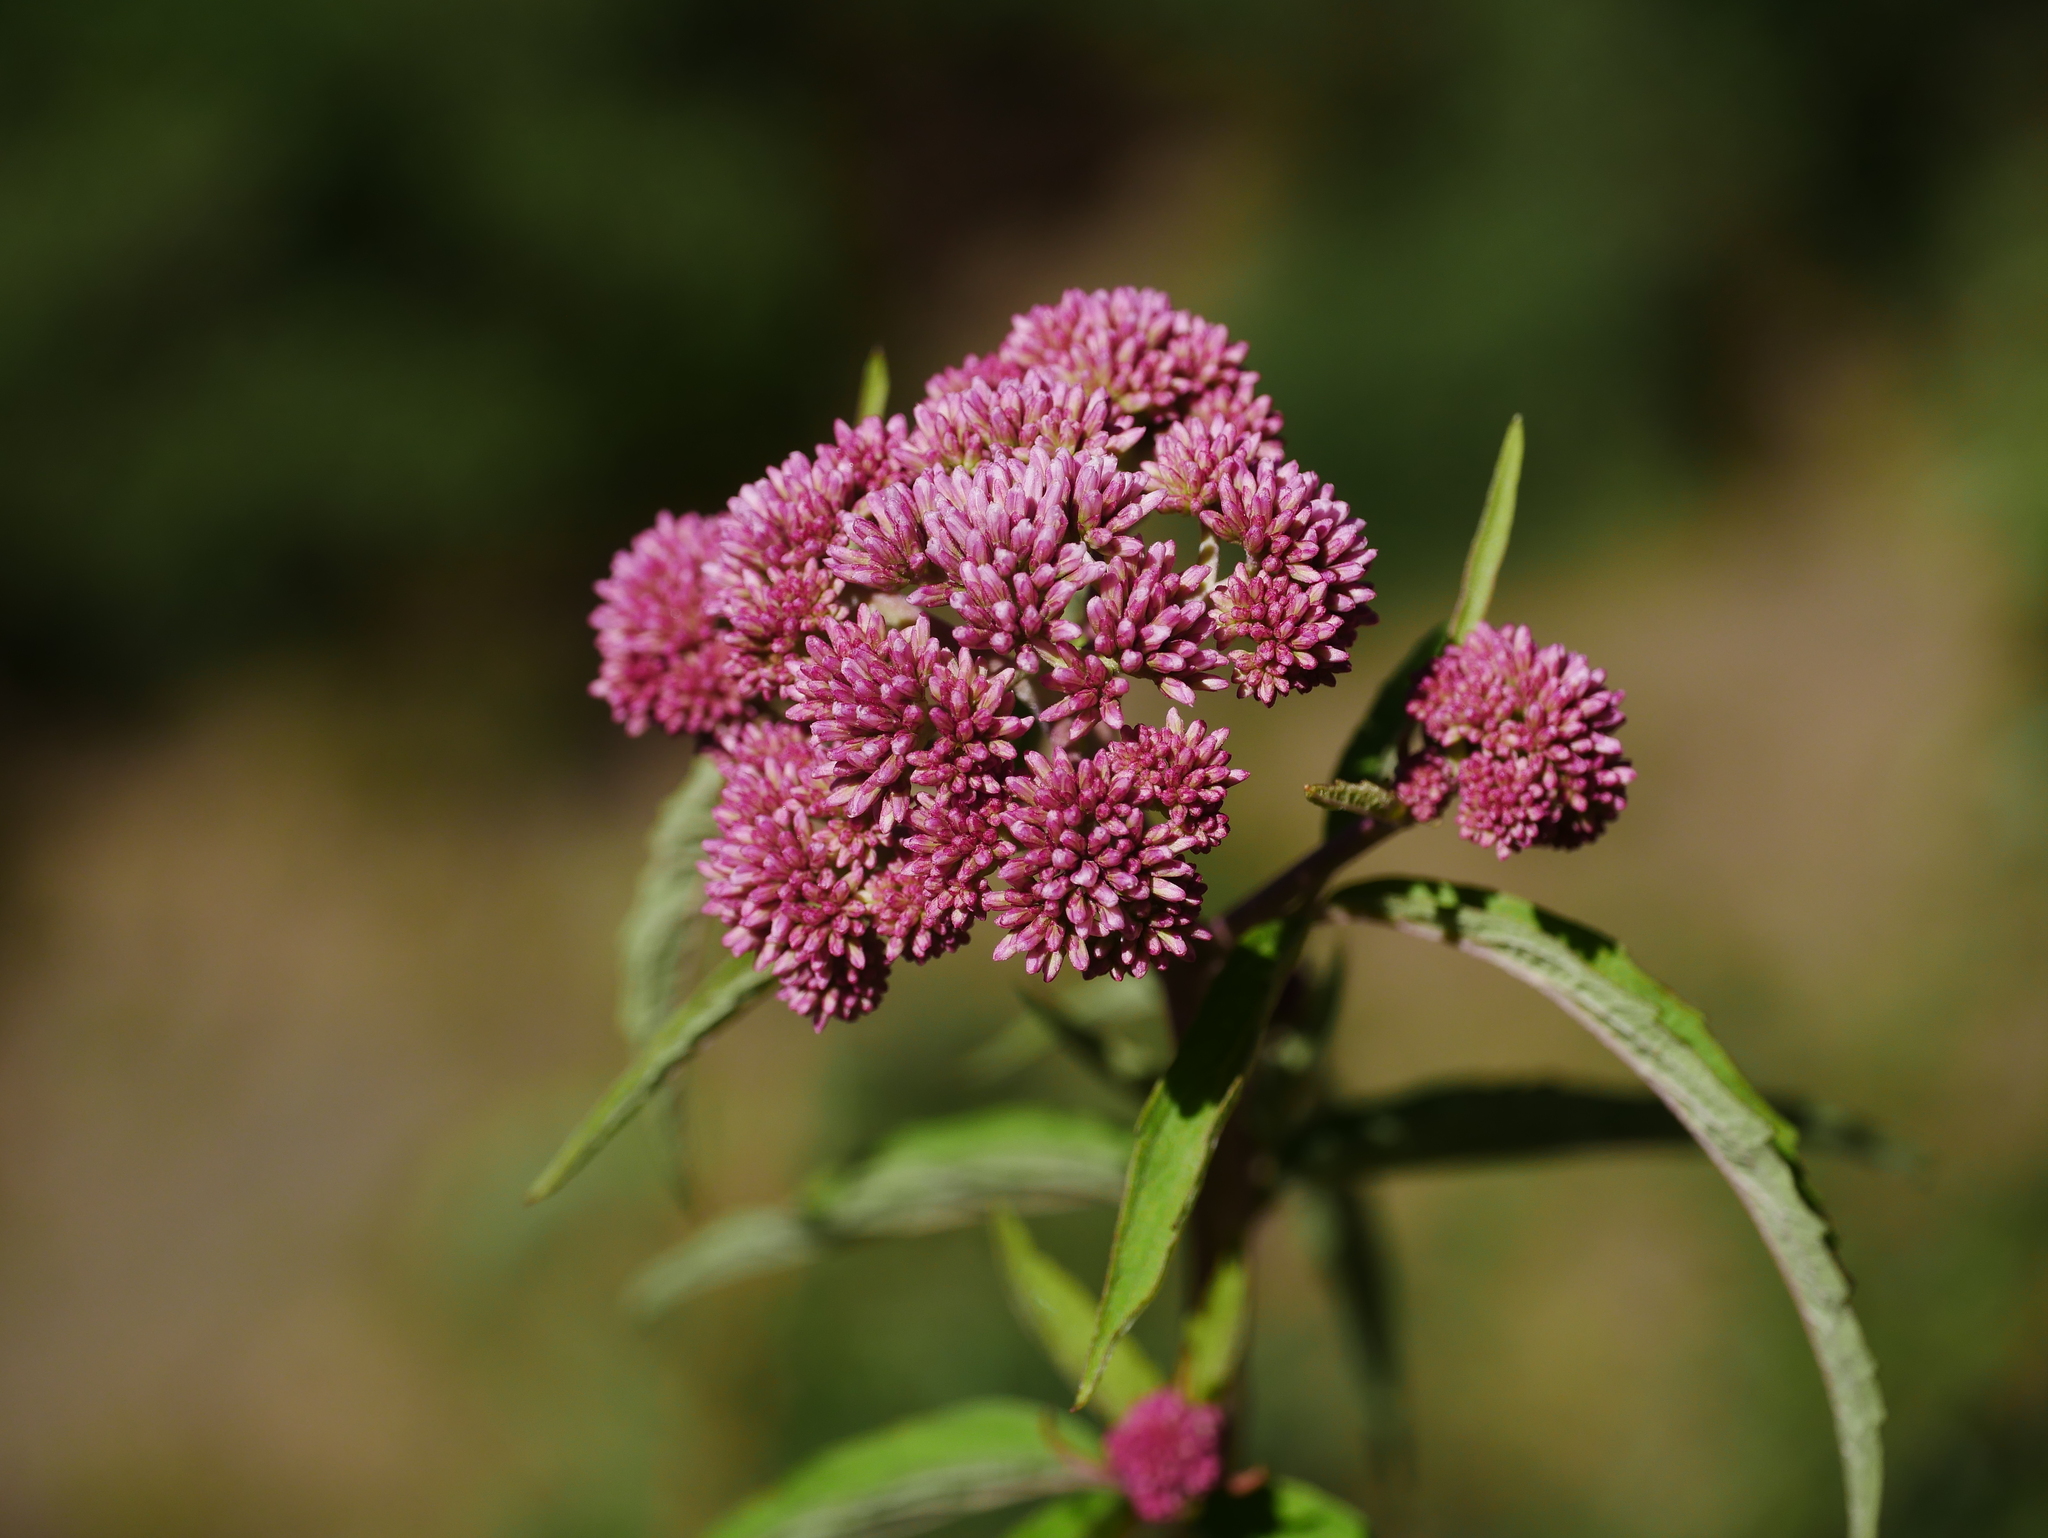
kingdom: Plantae
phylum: Tracheophyta
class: Magnoliopsida
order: Asterales
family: Asteraceae
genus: Eupatorium
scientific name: Eupatorium formosanum
